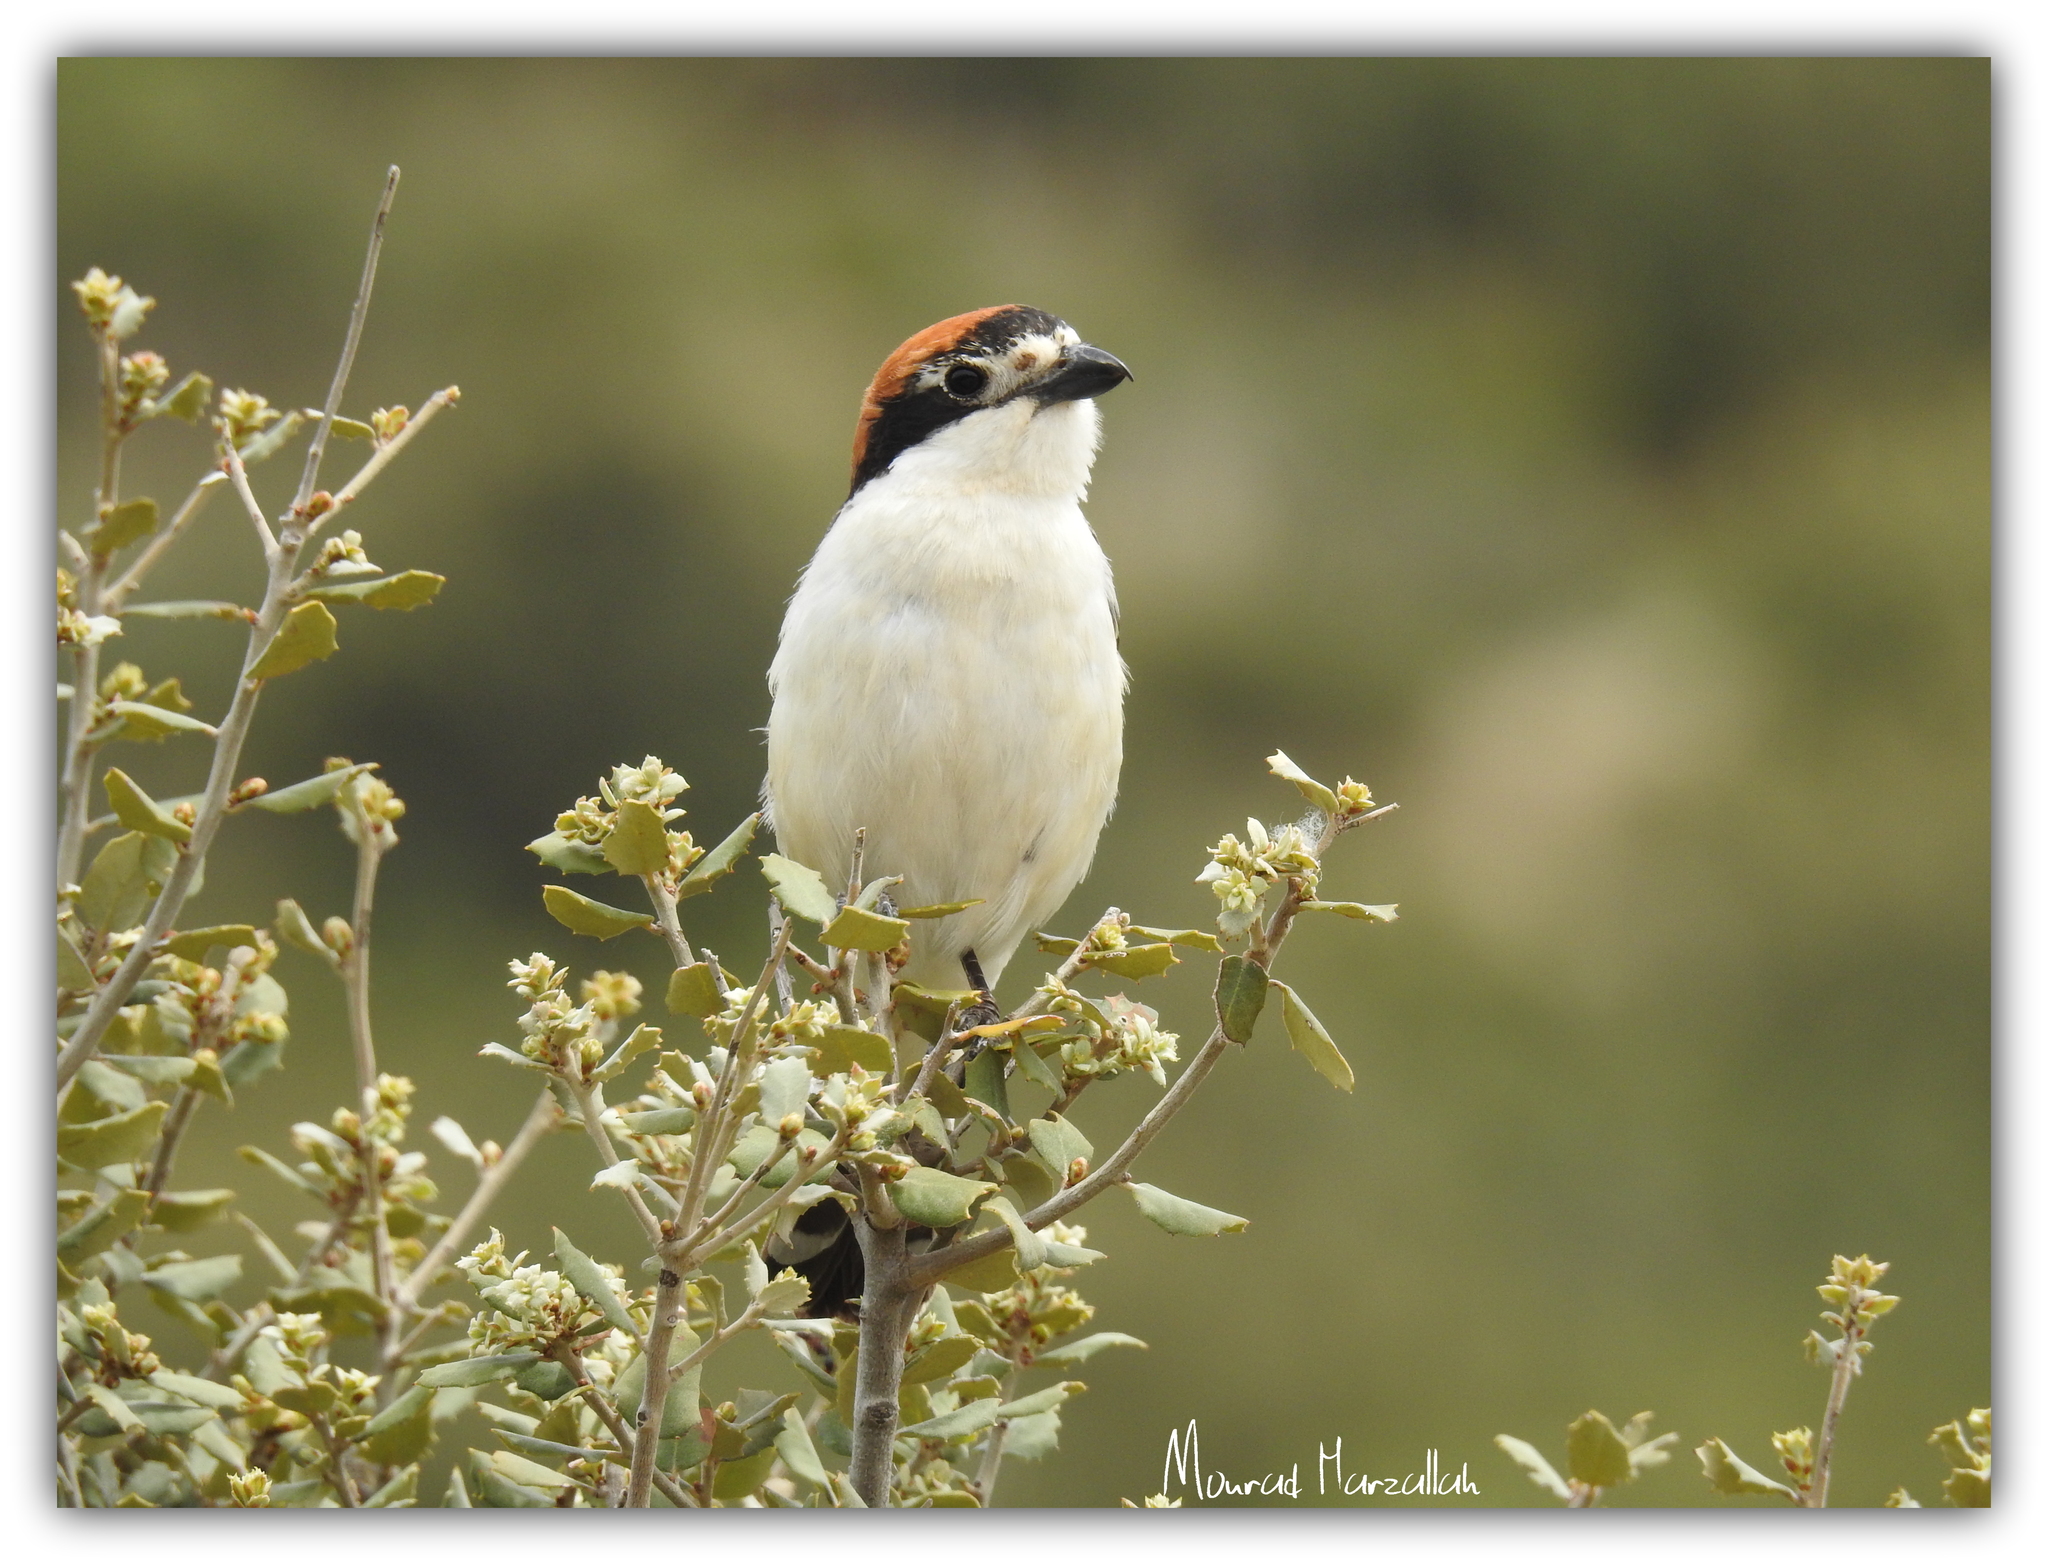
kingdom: Animalia
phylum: Chordata
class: Aves
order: Passeriformes
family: Laniidae
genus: Lanius
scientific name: Lanius senator
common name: Woodchat shrike
